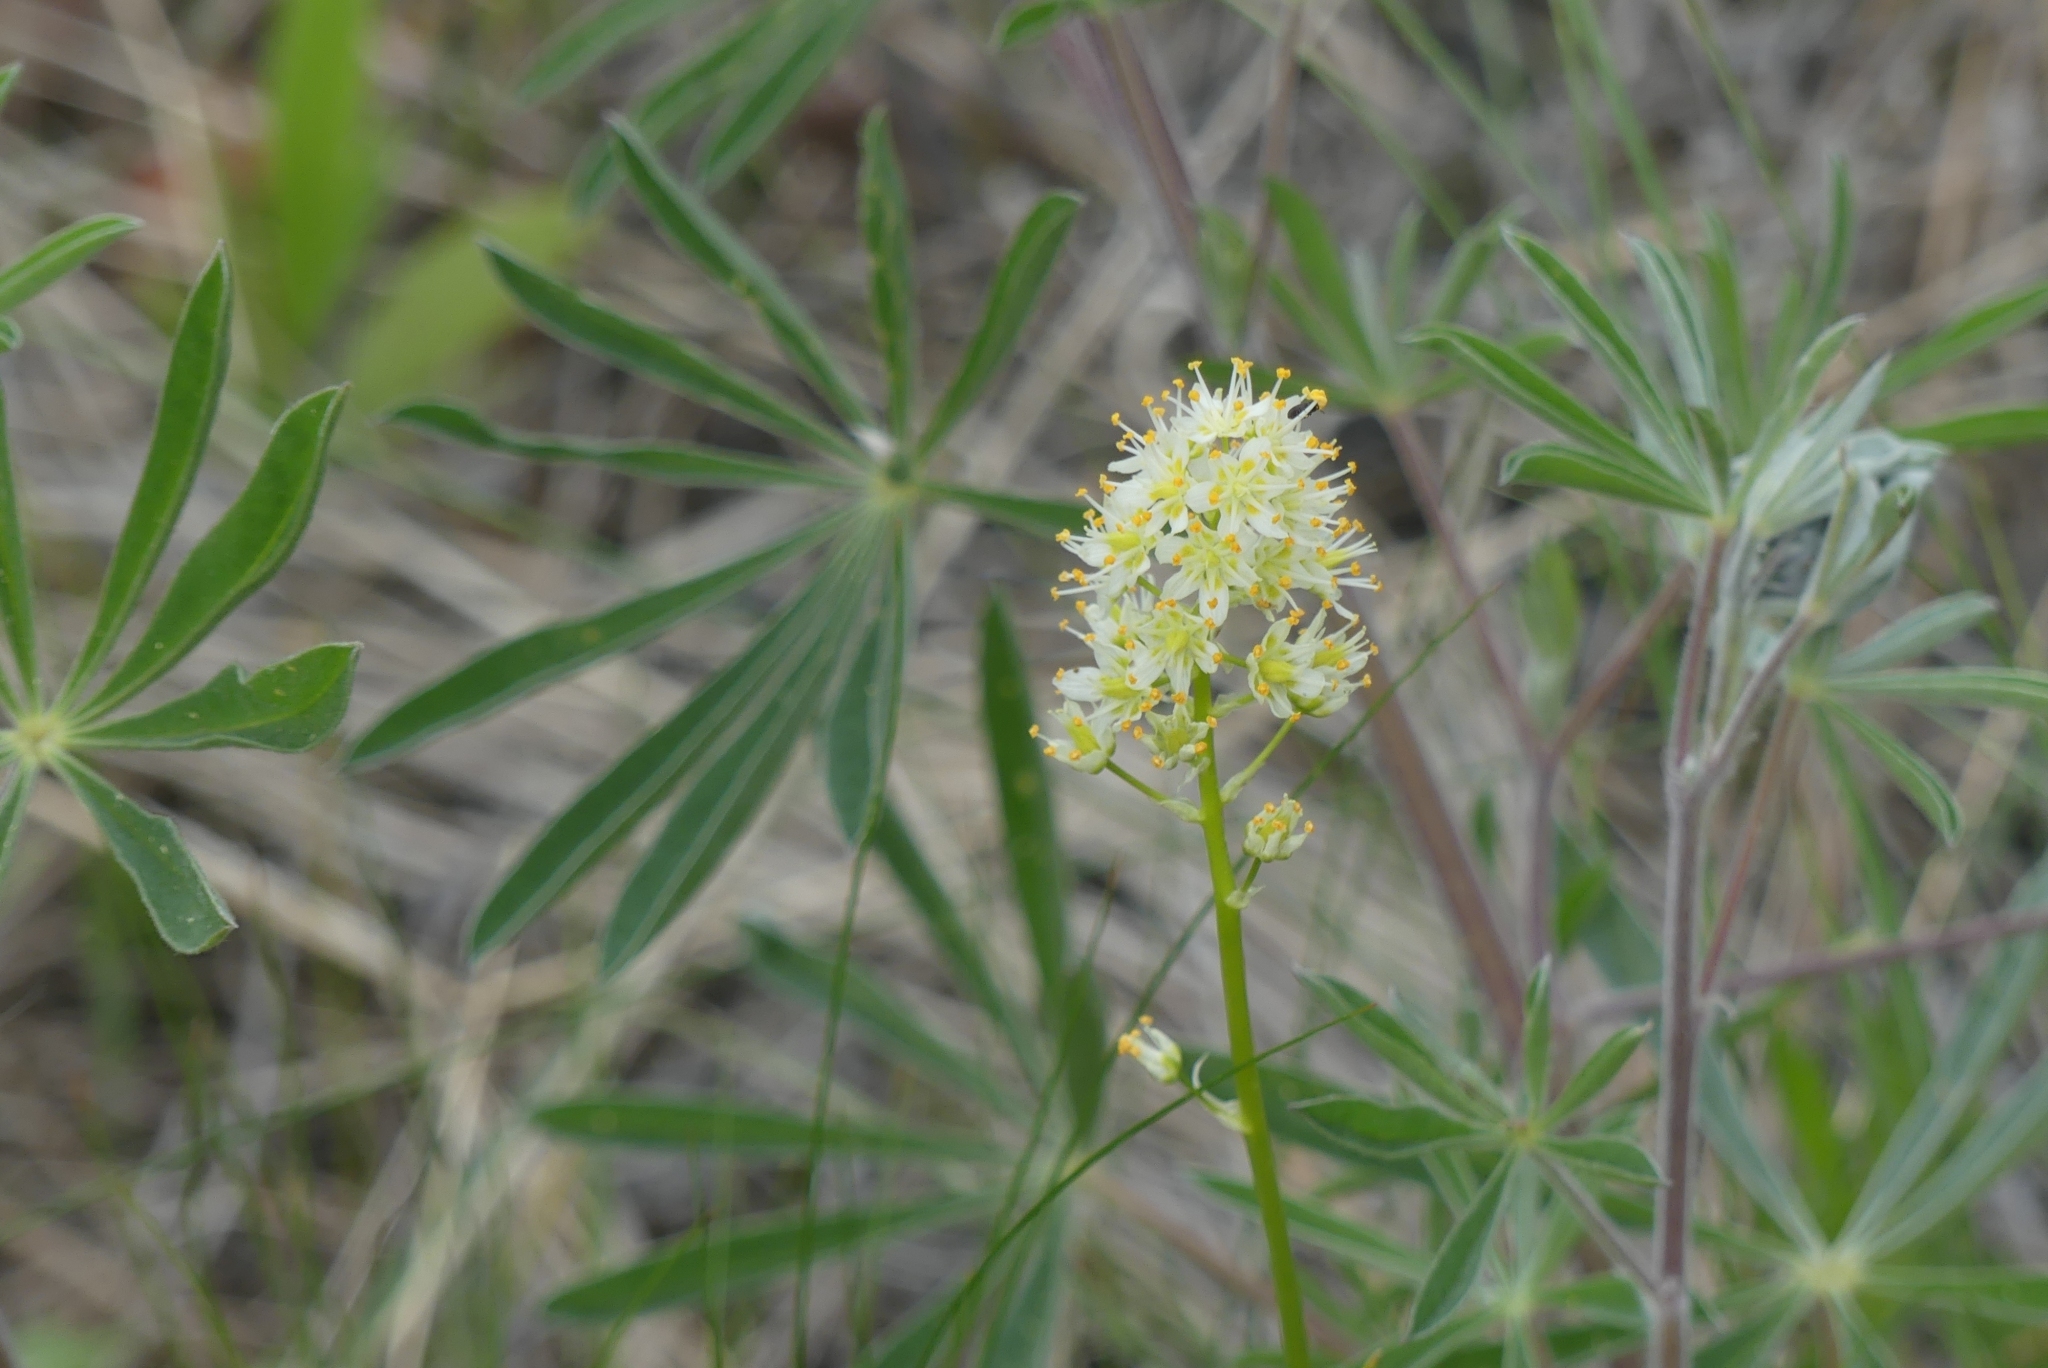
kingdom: Plantae
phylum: Tracheophyta
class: Liliopsida
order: Liliales
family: Melanthiaceae
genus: Toxicoscordion
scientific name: Toxicoscordion venenosum
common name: Meadow death camas
